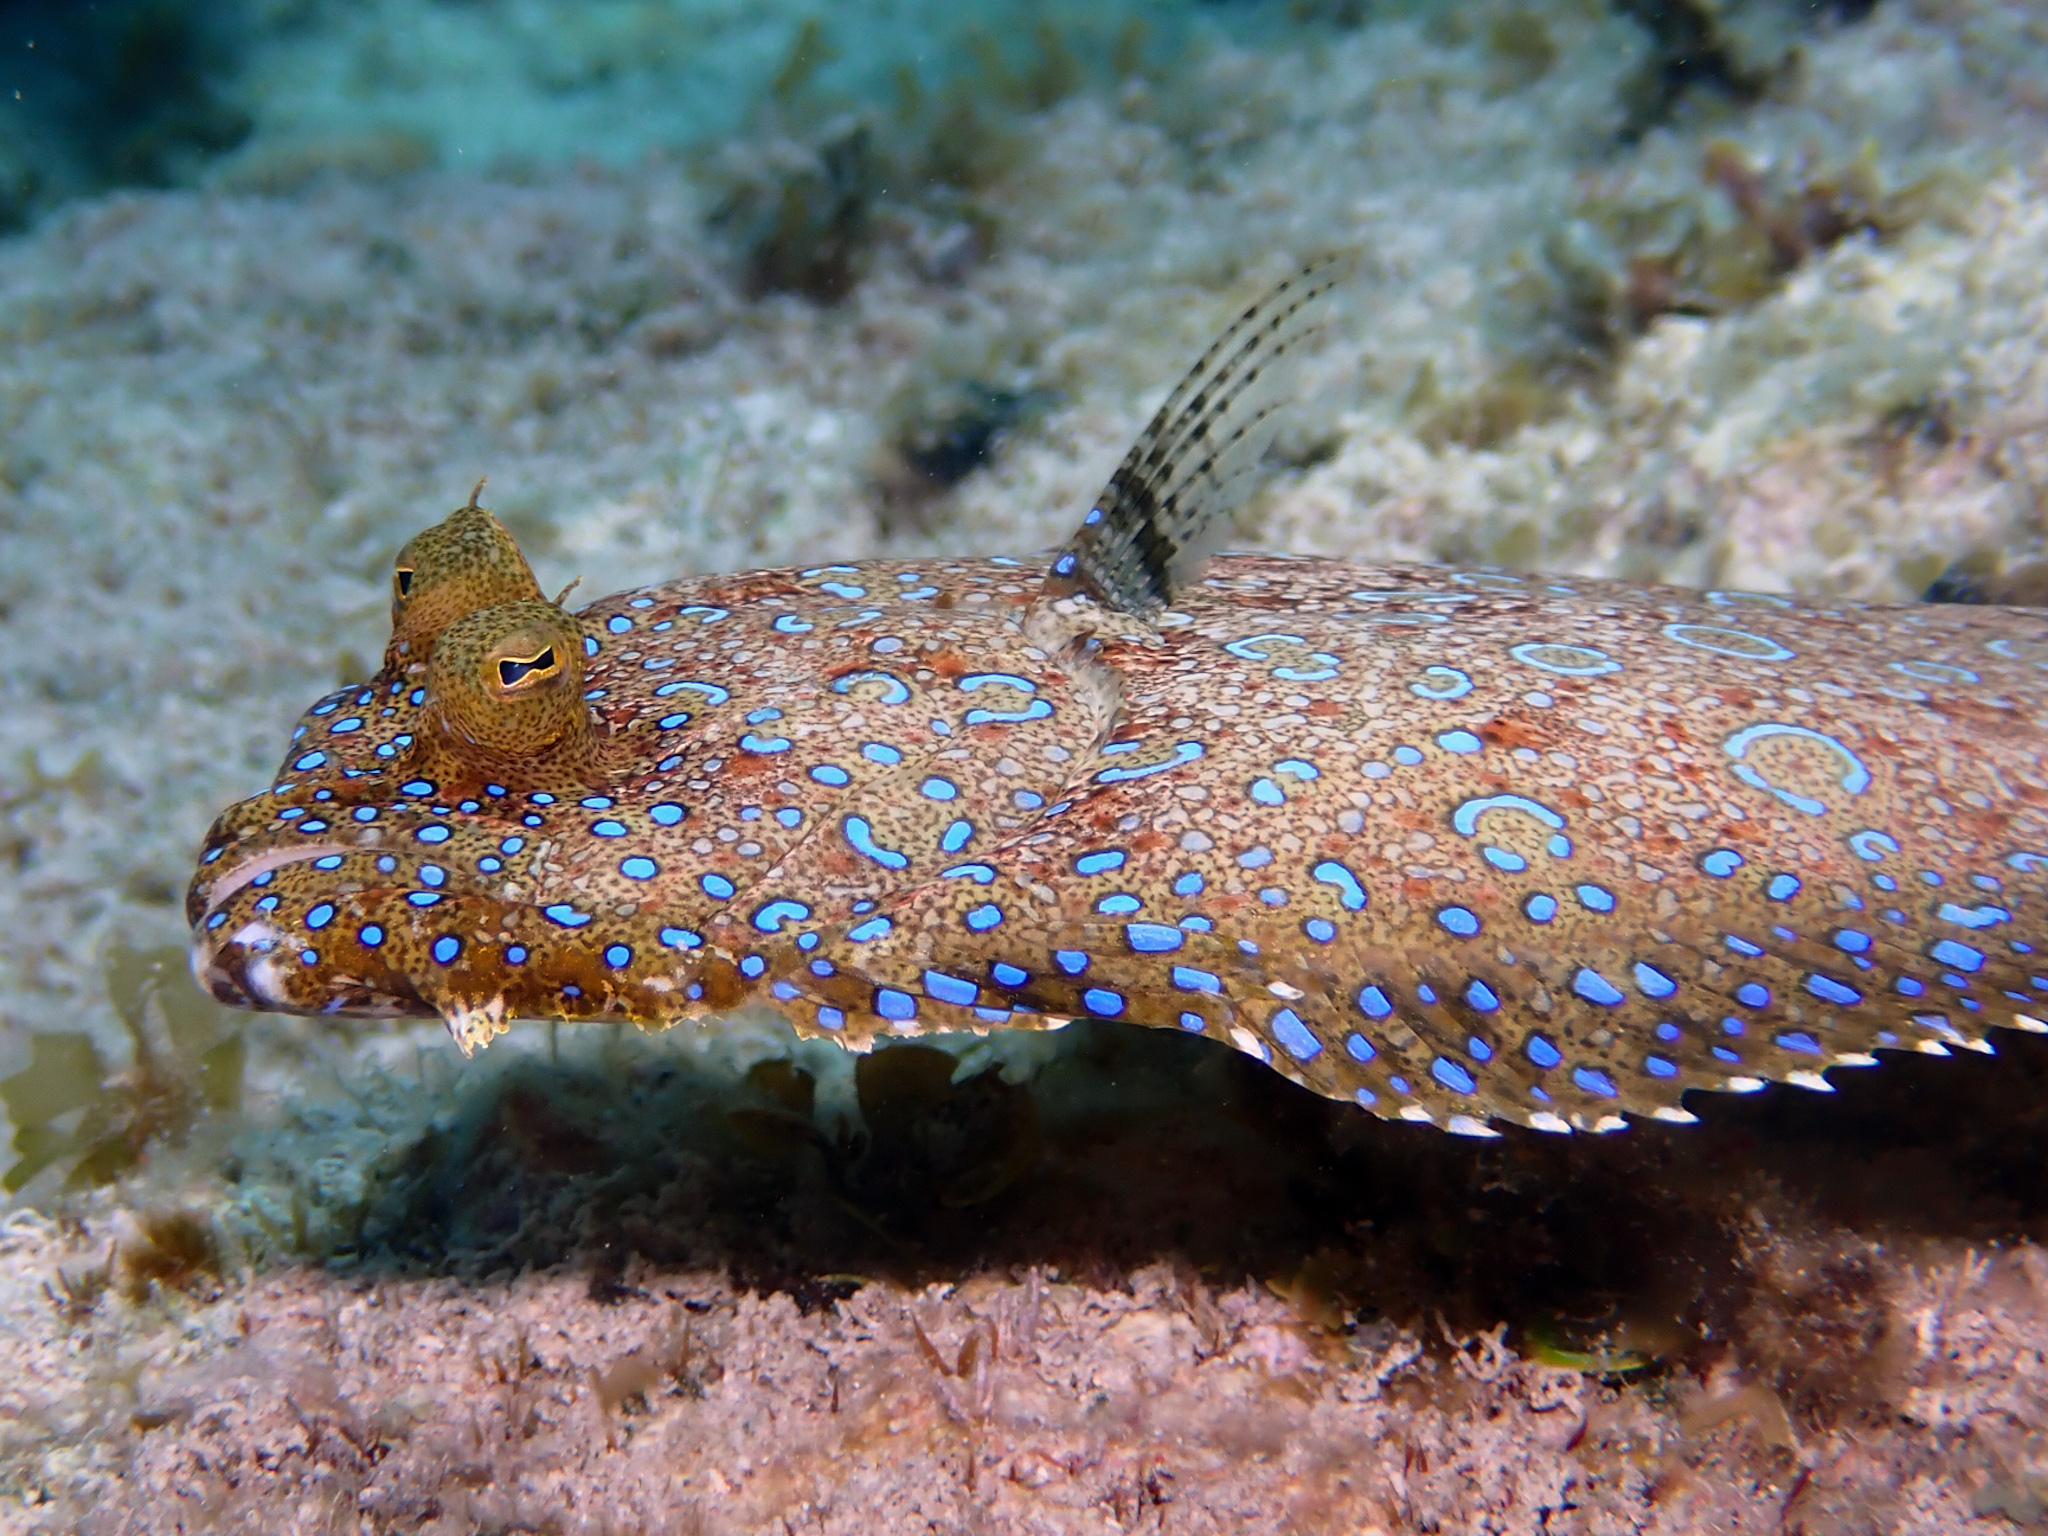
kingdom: Animalia
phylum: Chordata
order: Pleuronectiformes
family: Bothidae
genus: Bothus
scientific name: Bothus lunatus
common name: Peacock flounder
